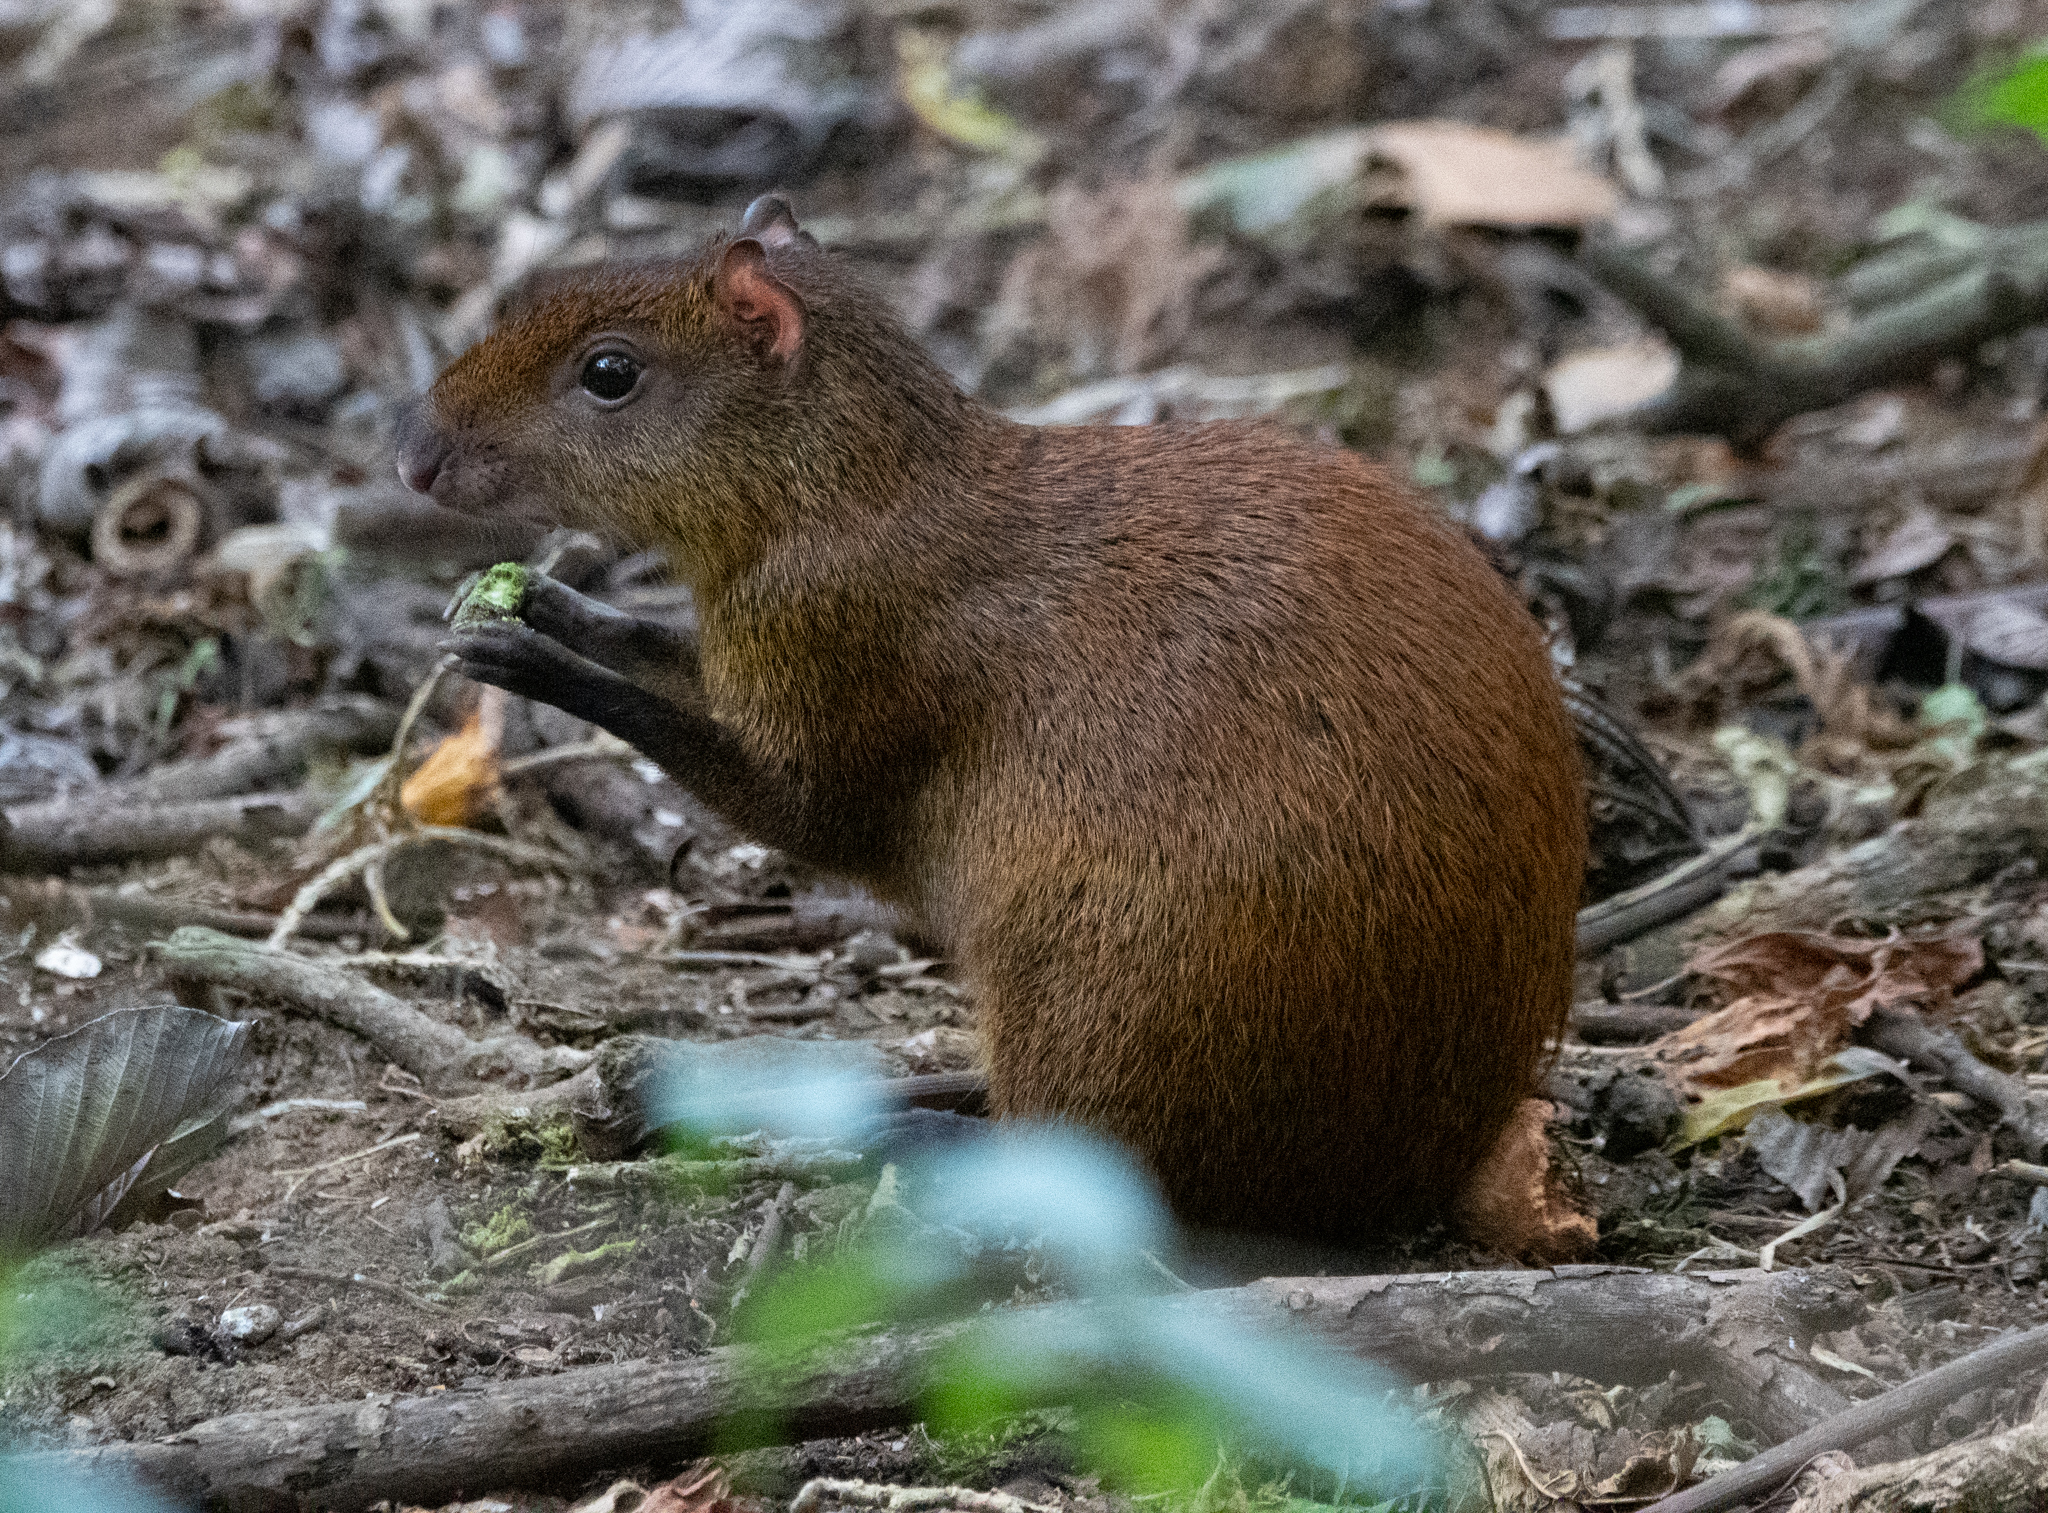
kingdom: Animalia
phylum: Chordata
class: Mammalia
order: Rodentia
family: Dasyproctidae
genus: Dasyprocta
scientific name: Dasyprocta punctata
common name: Central american agouti
